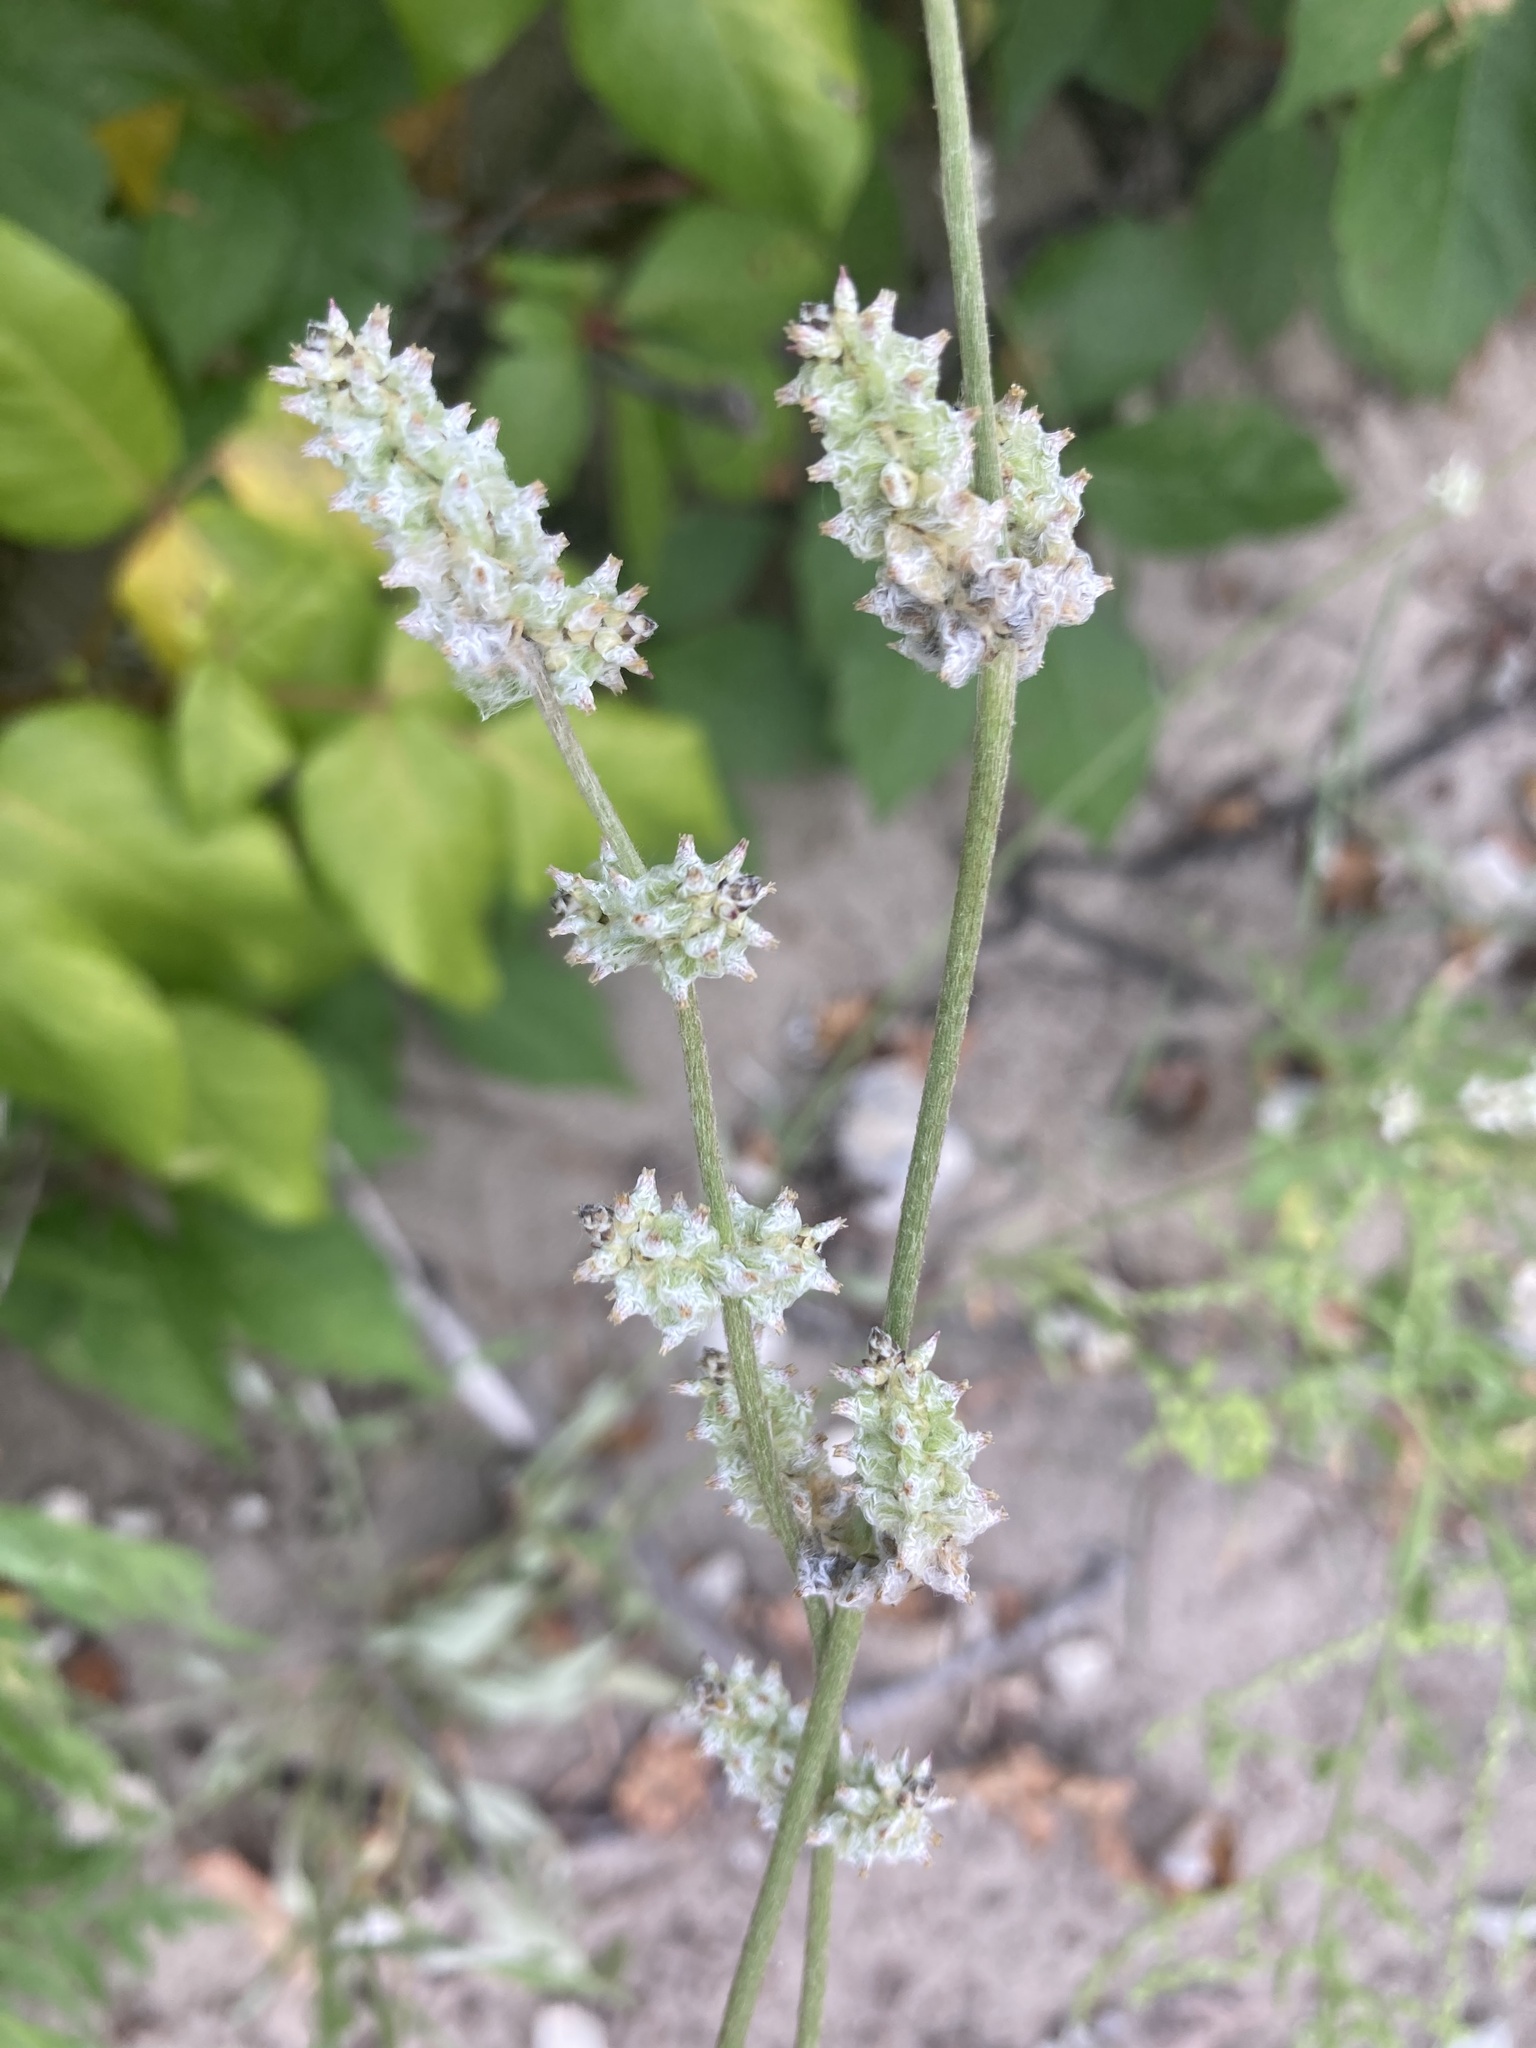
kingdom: Plantae
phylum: Tracheophyta
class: Magnoliopsida
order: Caryophyllales
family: Amaranthaceae
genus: Froelichia
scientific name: Froelichia gracilis
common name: Slender cottonweed
